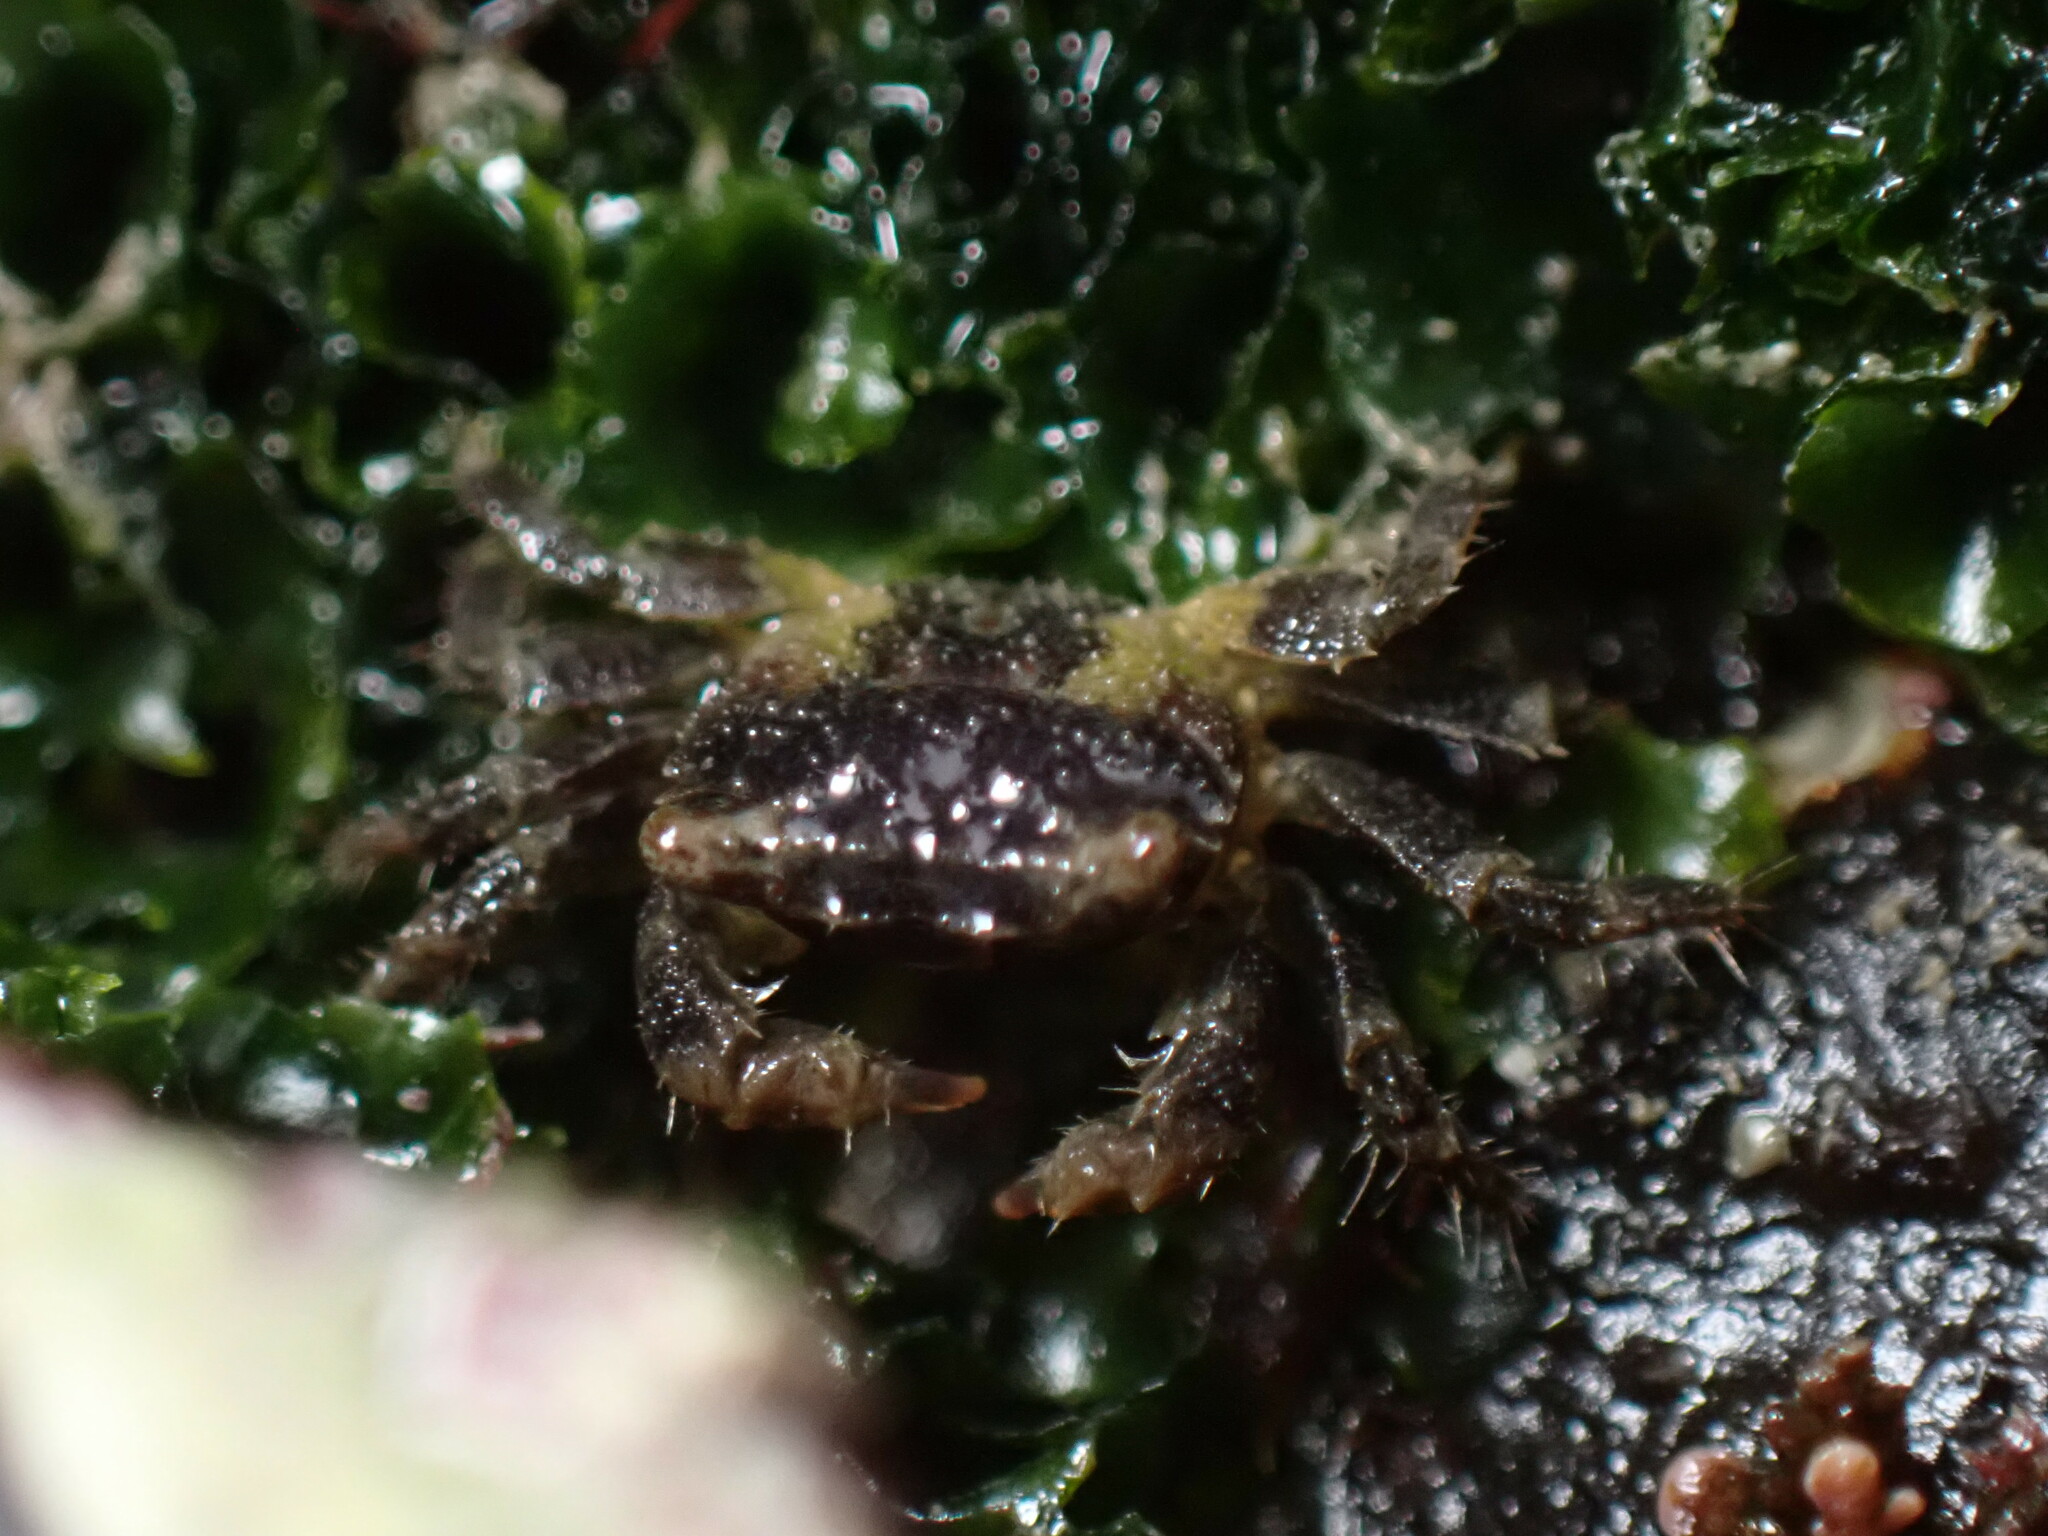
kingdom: Animalia
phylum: Arthropoda
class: Malacostraca
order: Decapoda
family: Sesarmidae
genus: Nanosesarma
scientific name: Nanosesarma minutum
